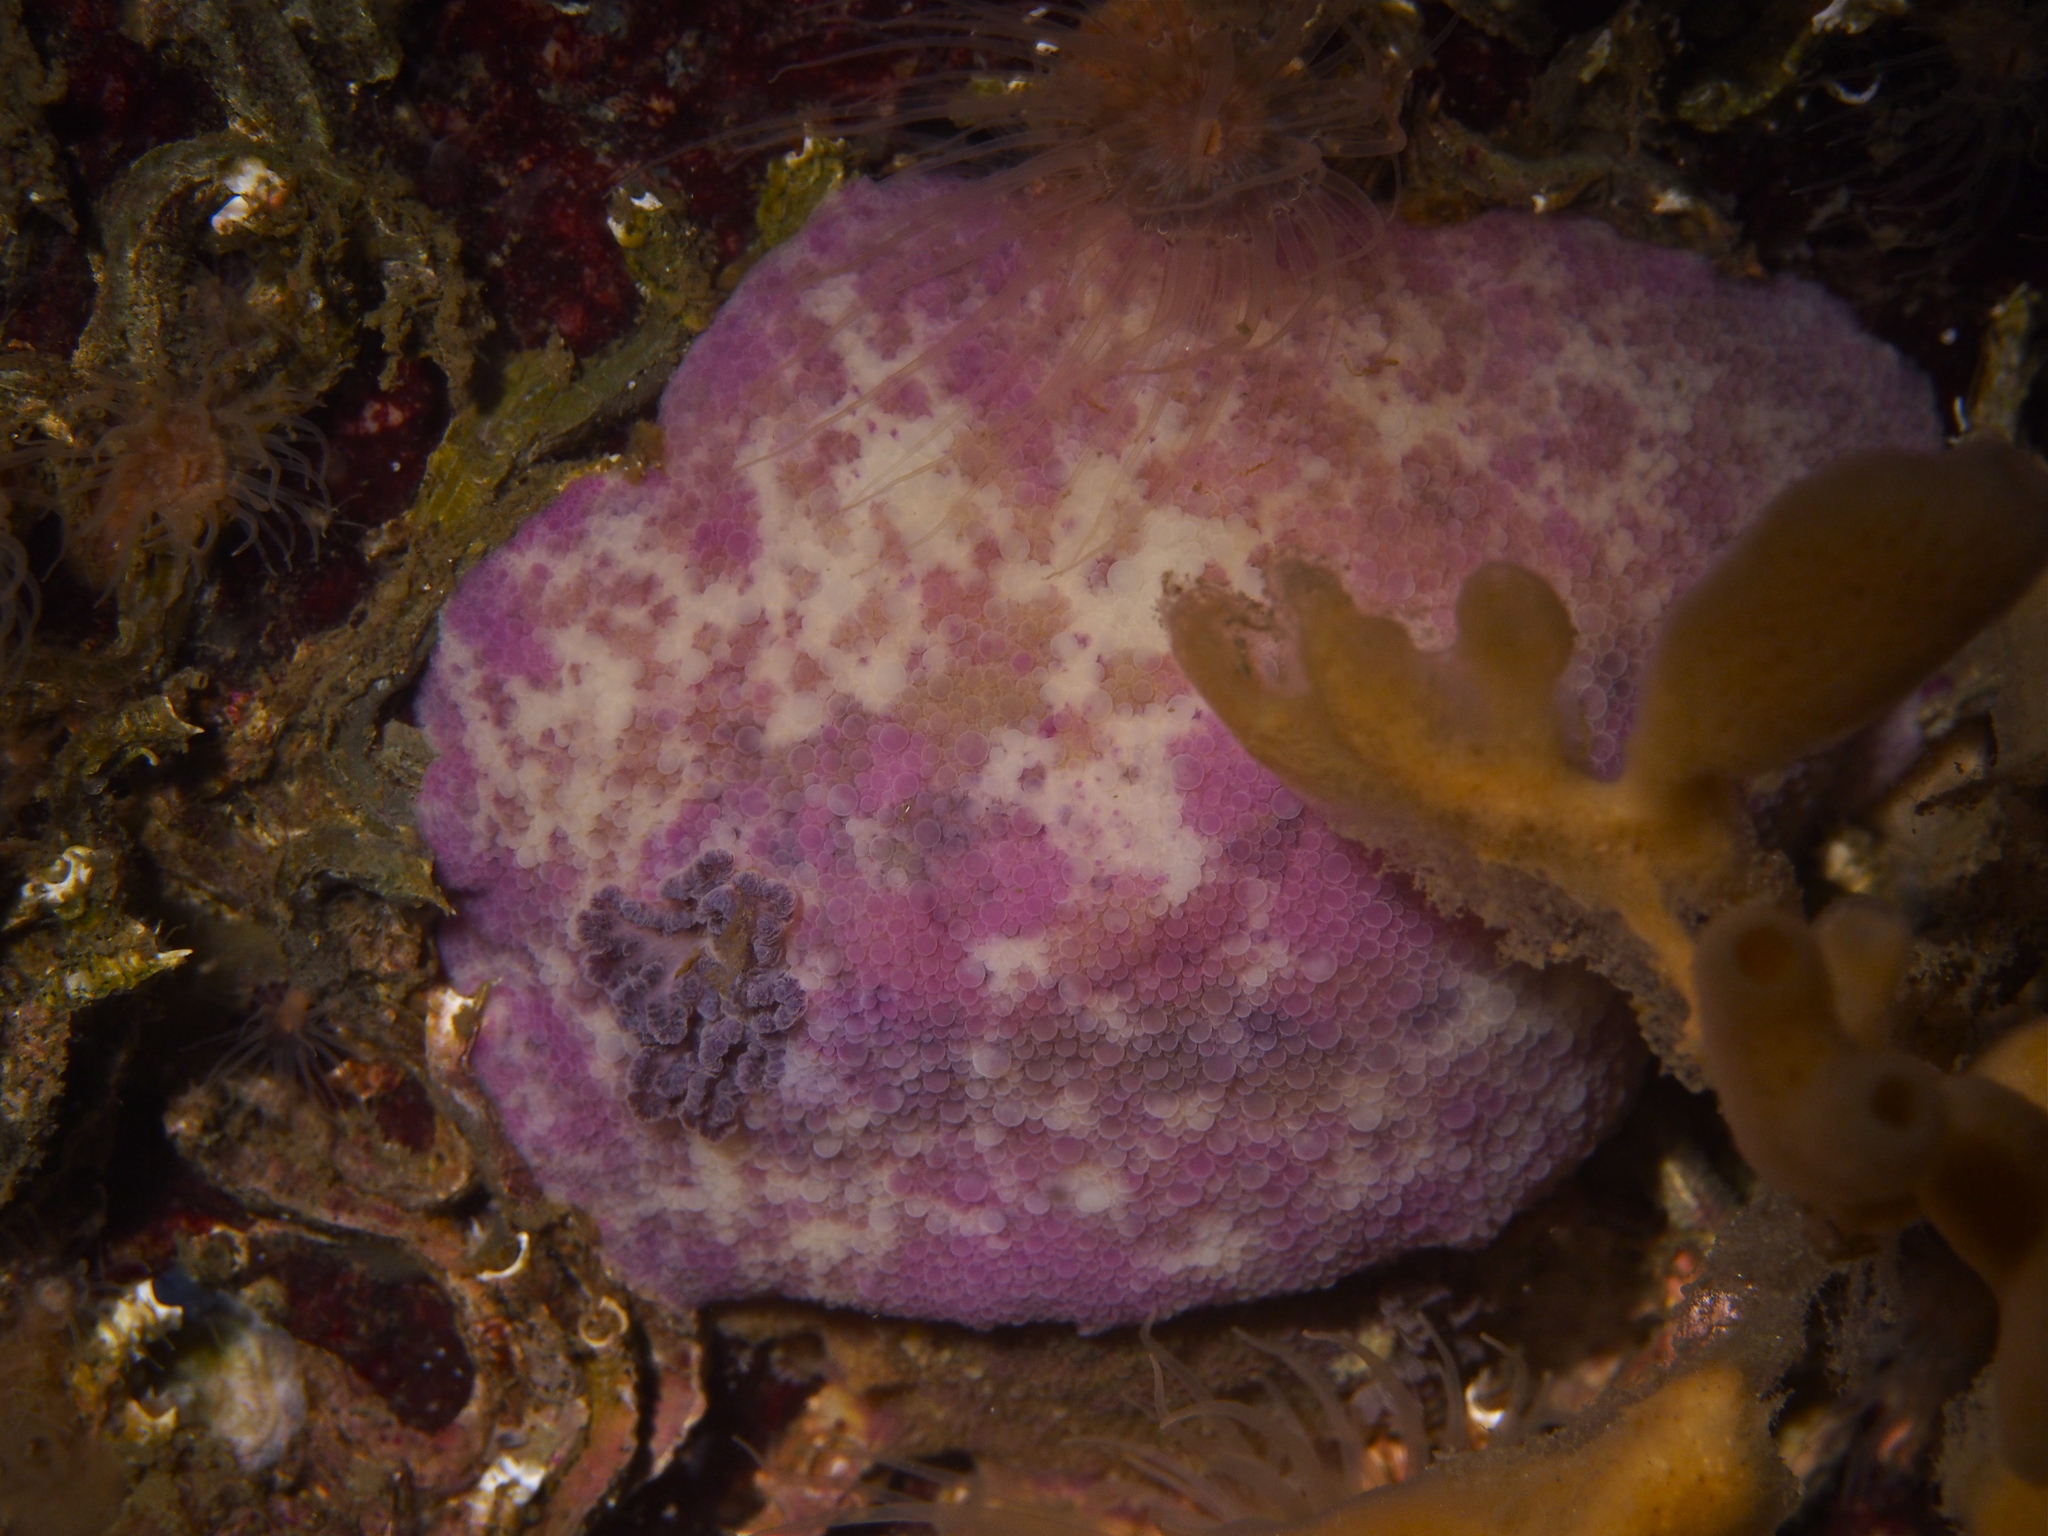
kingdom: Animalia
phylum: Mollusca
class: Gastropoda
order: Nudibranchia
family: Dorididae
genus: Doris
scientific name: Doris pseudoargus
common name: Sea lemon
